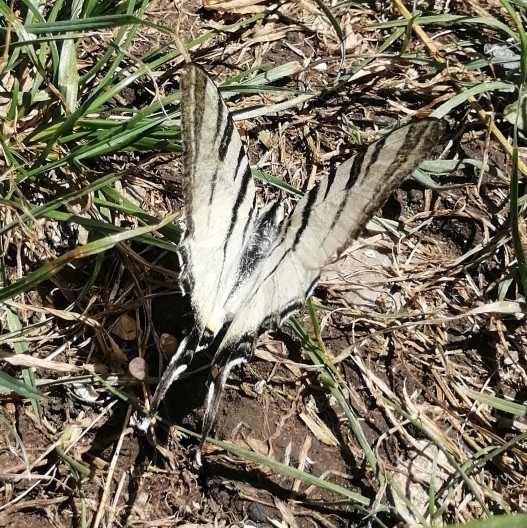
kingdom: Animalia
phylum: Arthropoda
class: Insecta
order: Lepidoptera
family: Papilionidae
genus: Iphiclides
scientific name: Iphiclides podalirius
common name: Scarce swallowtail
